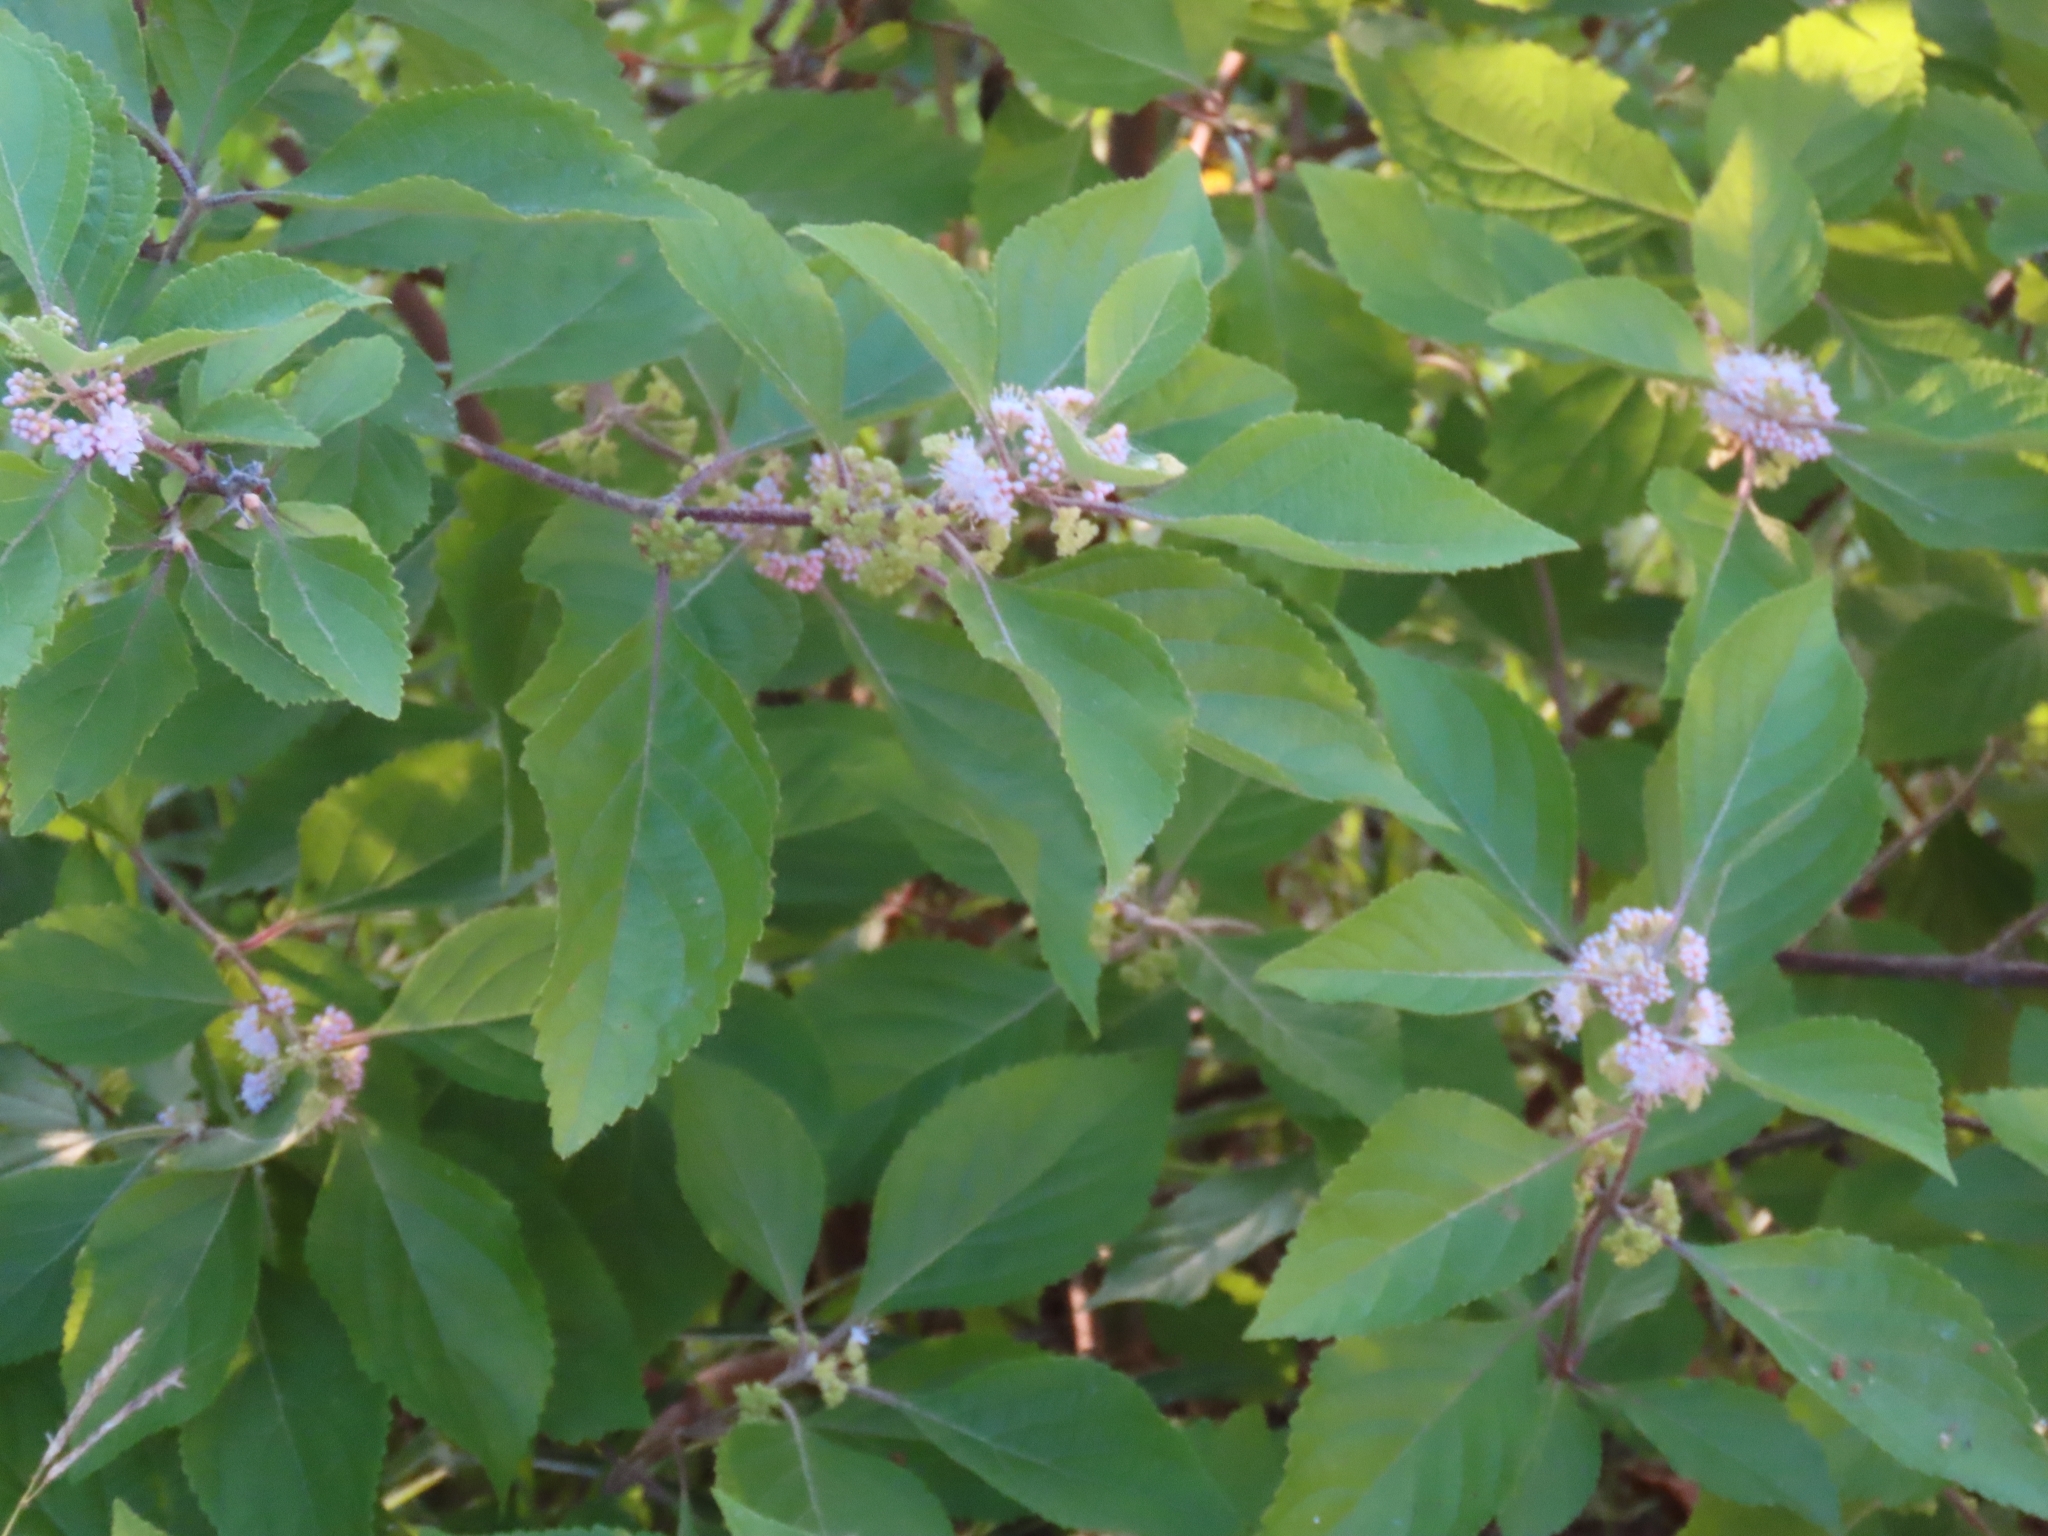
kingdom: Plantae
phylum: Tracheophyta
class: Magnoliopsida
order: Lamiales
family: Lamiaceae
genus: Callicarpa
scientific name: Callicarpa americana
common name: American beautyberry
